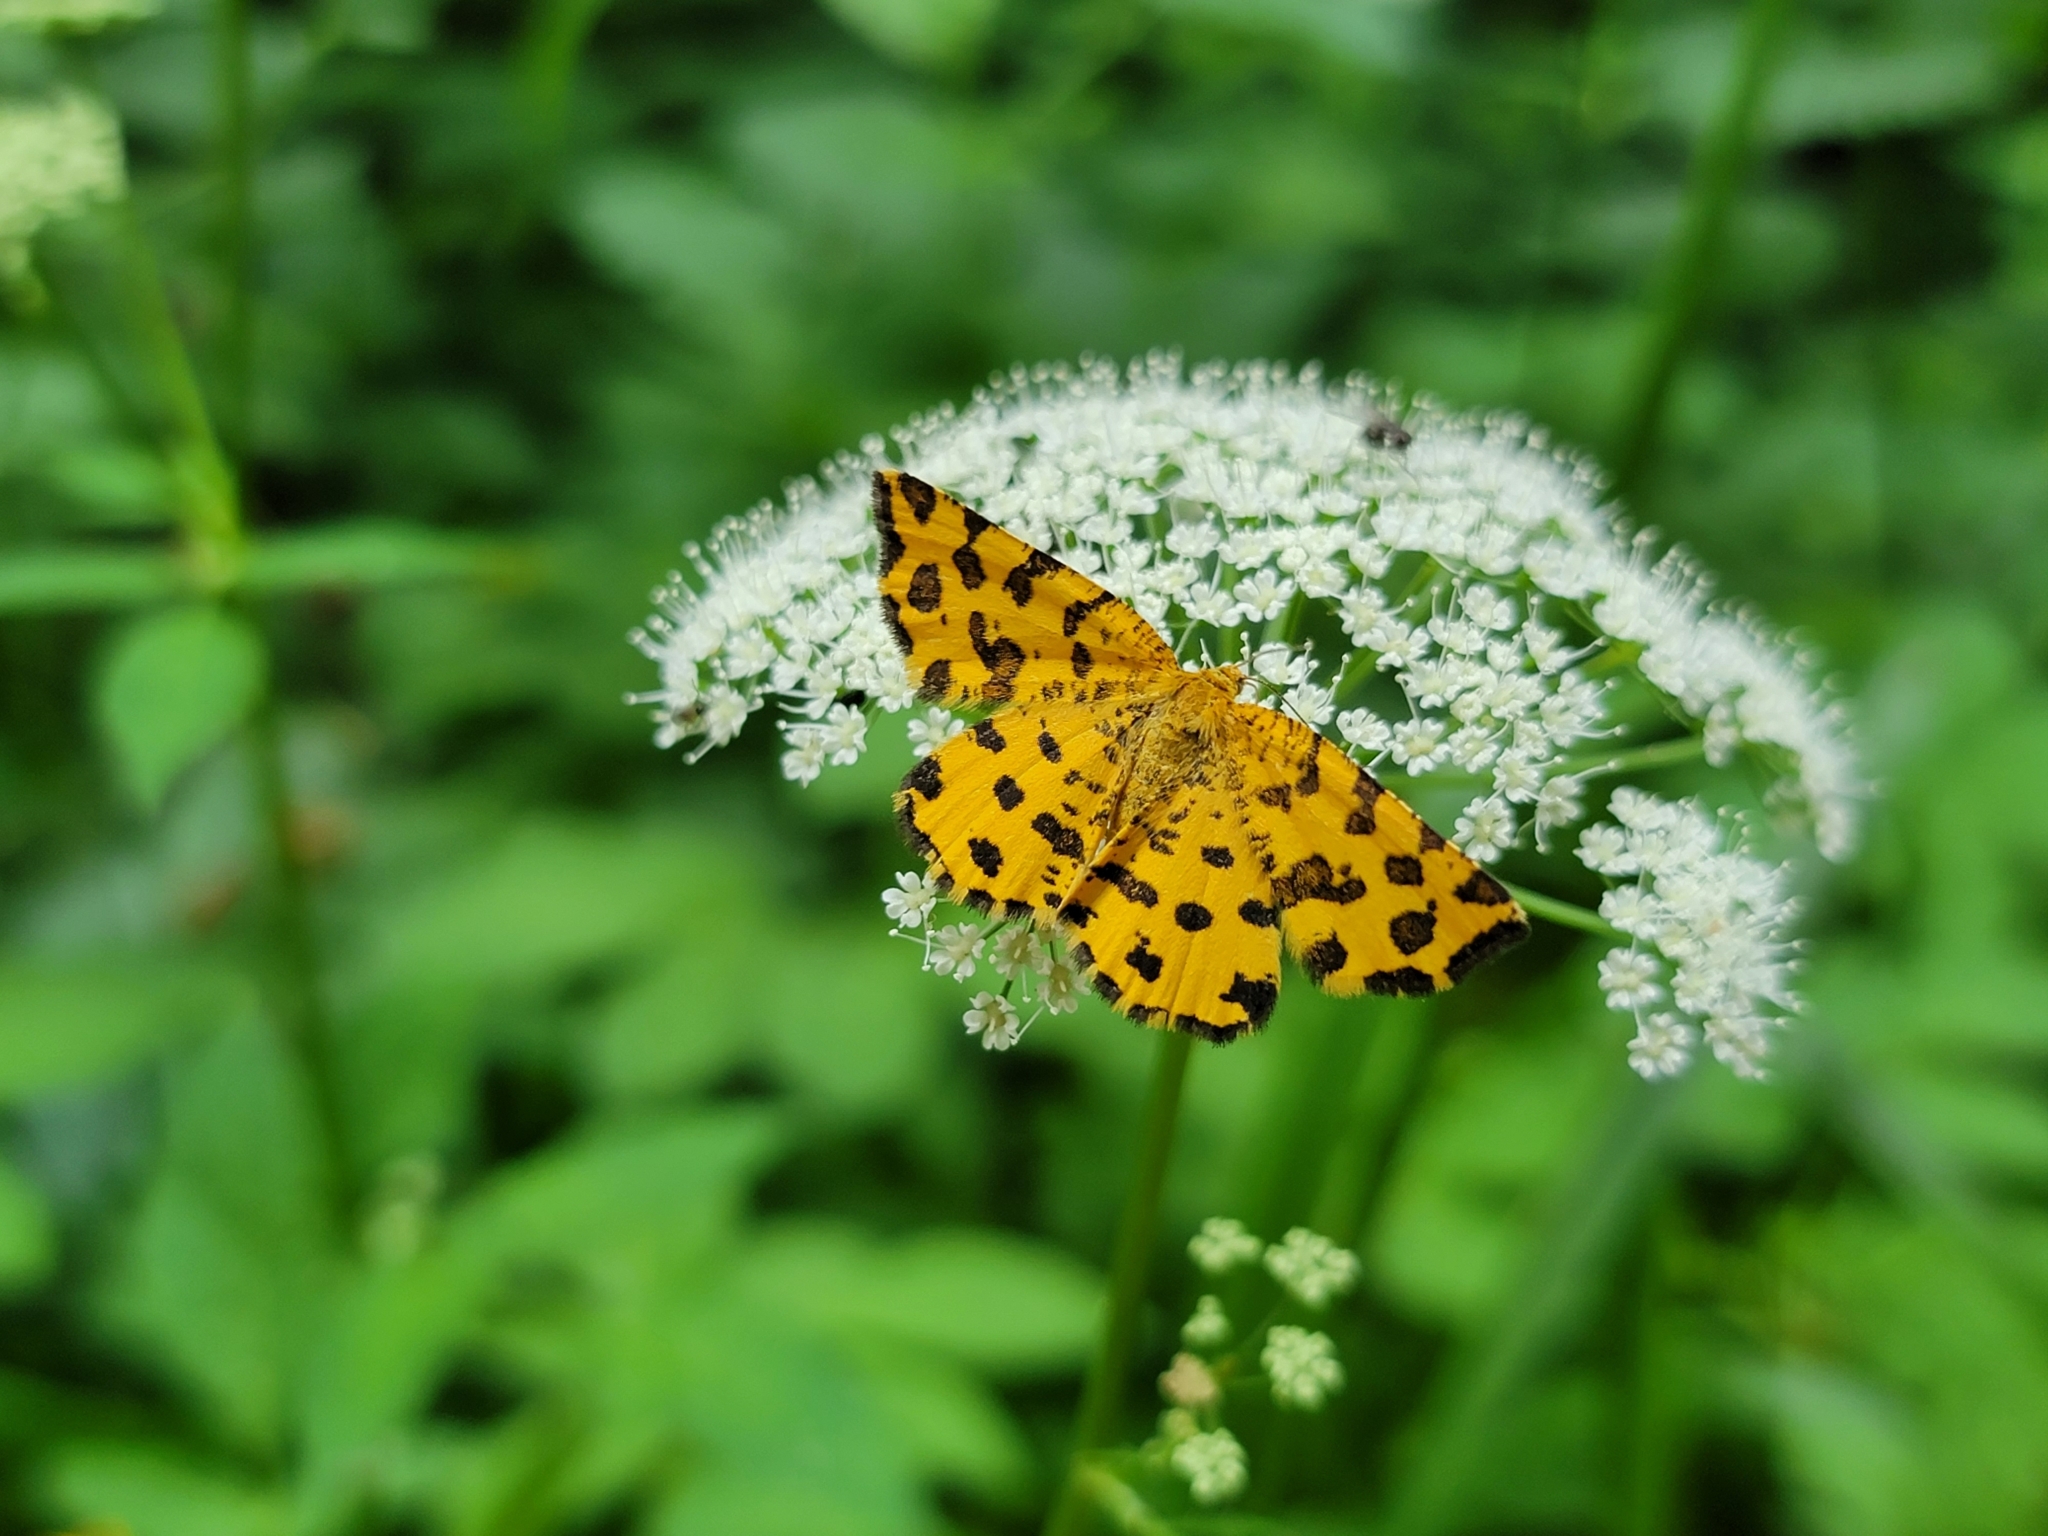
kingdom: Animalia
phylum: Arthropoda
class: Insecta
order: Lepidoptera
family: Geometridae
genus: Pseudopanthera
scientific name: Pseudopanthera macularia
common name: Speckled yellow
